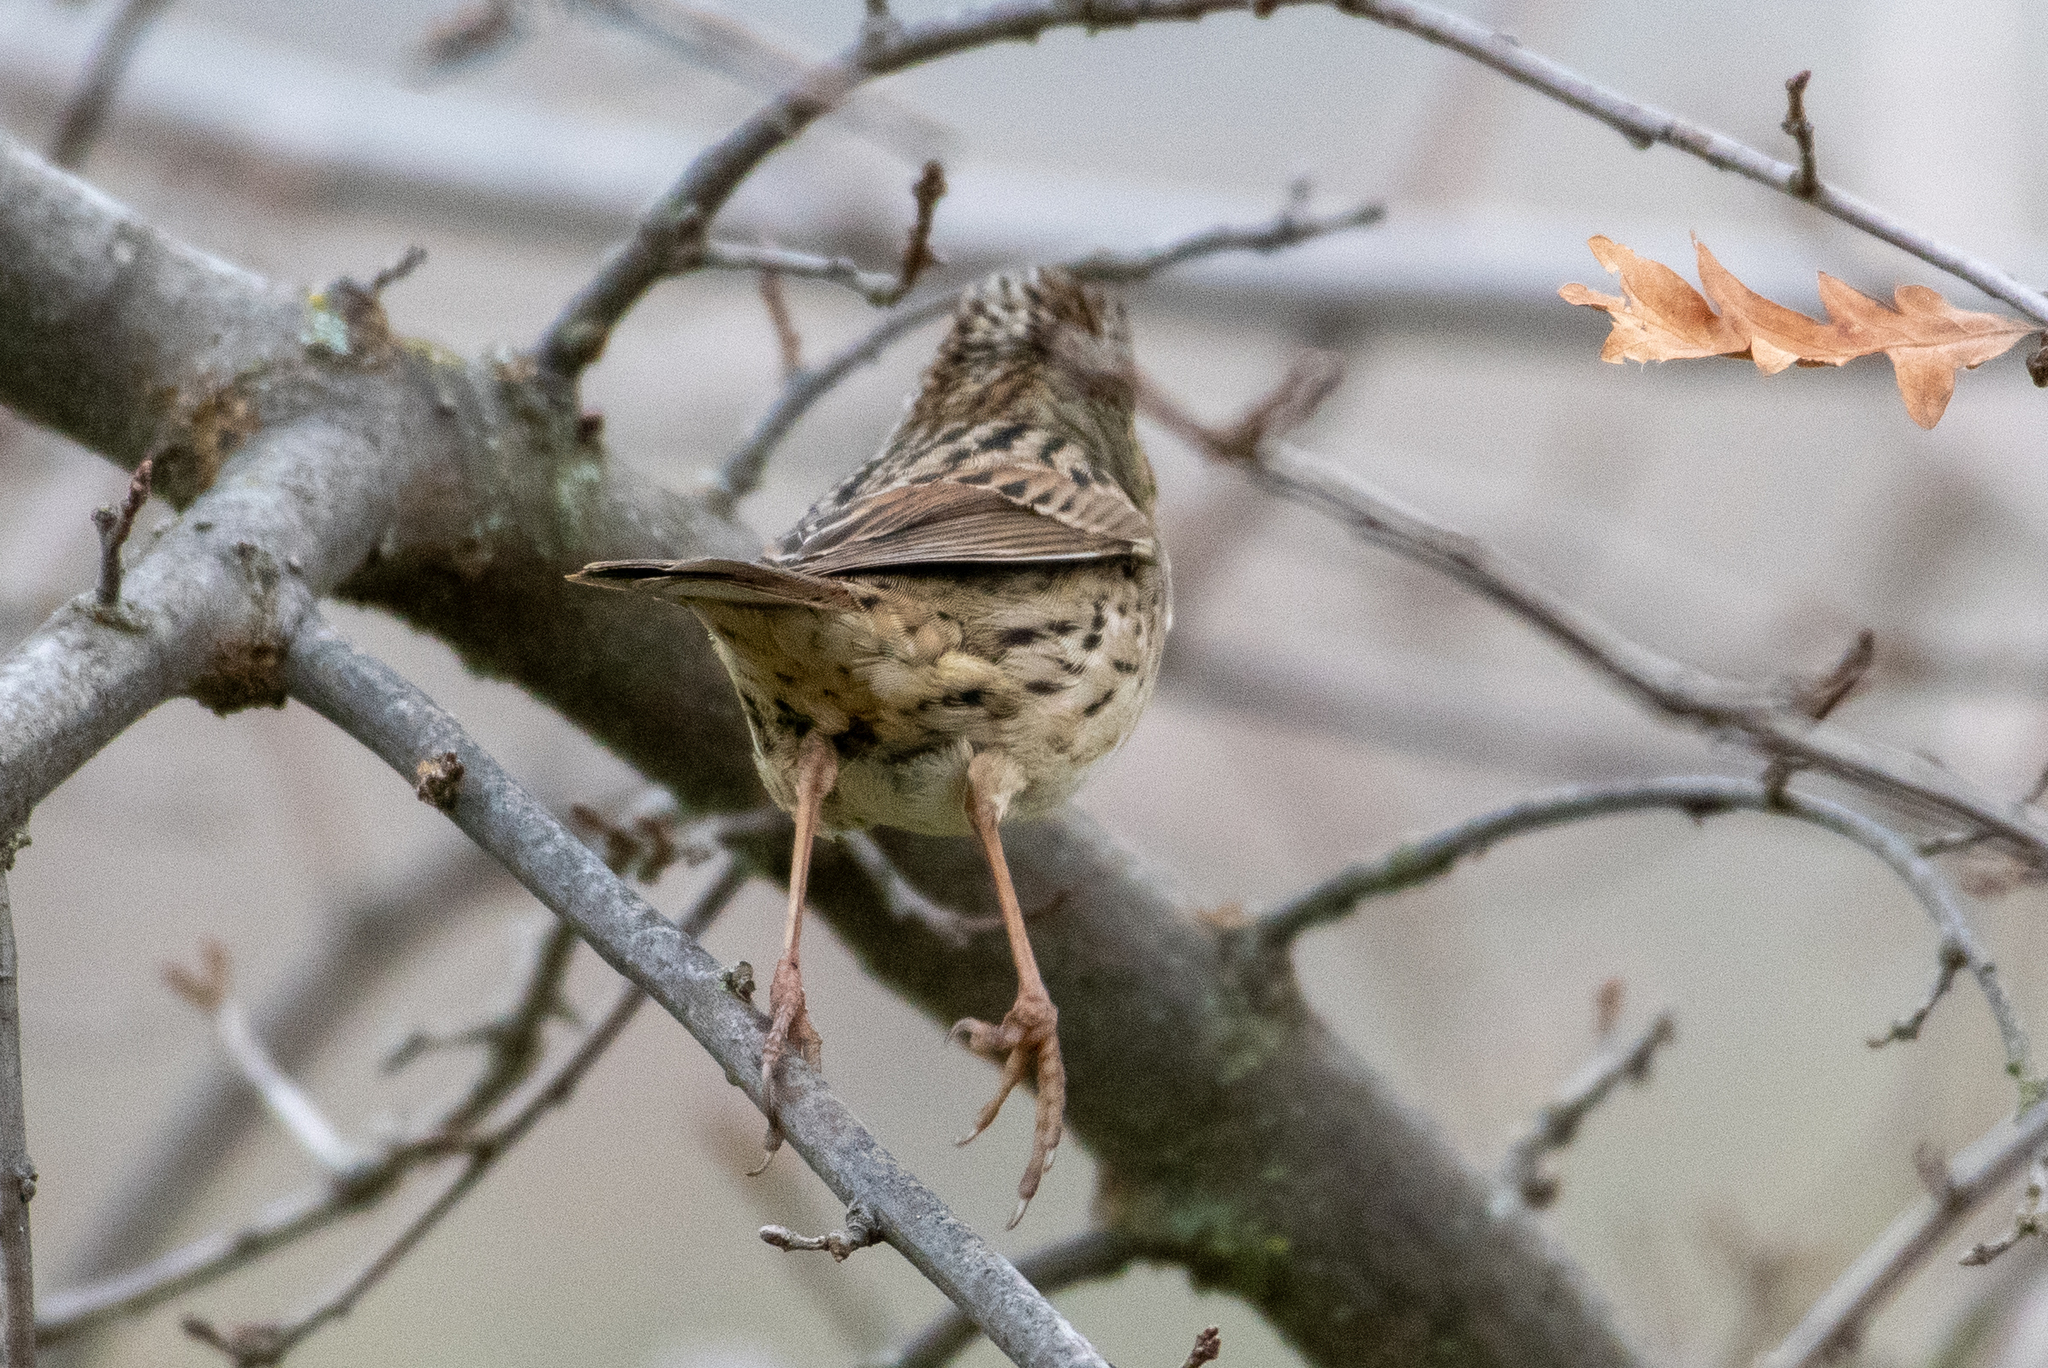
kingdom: Animalia
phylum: Chordata
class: Aves
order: Passeriformes
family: Passerellidae
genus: Melospiza
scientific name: Melospiza lincolnii
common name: Lincoln's sparrow
